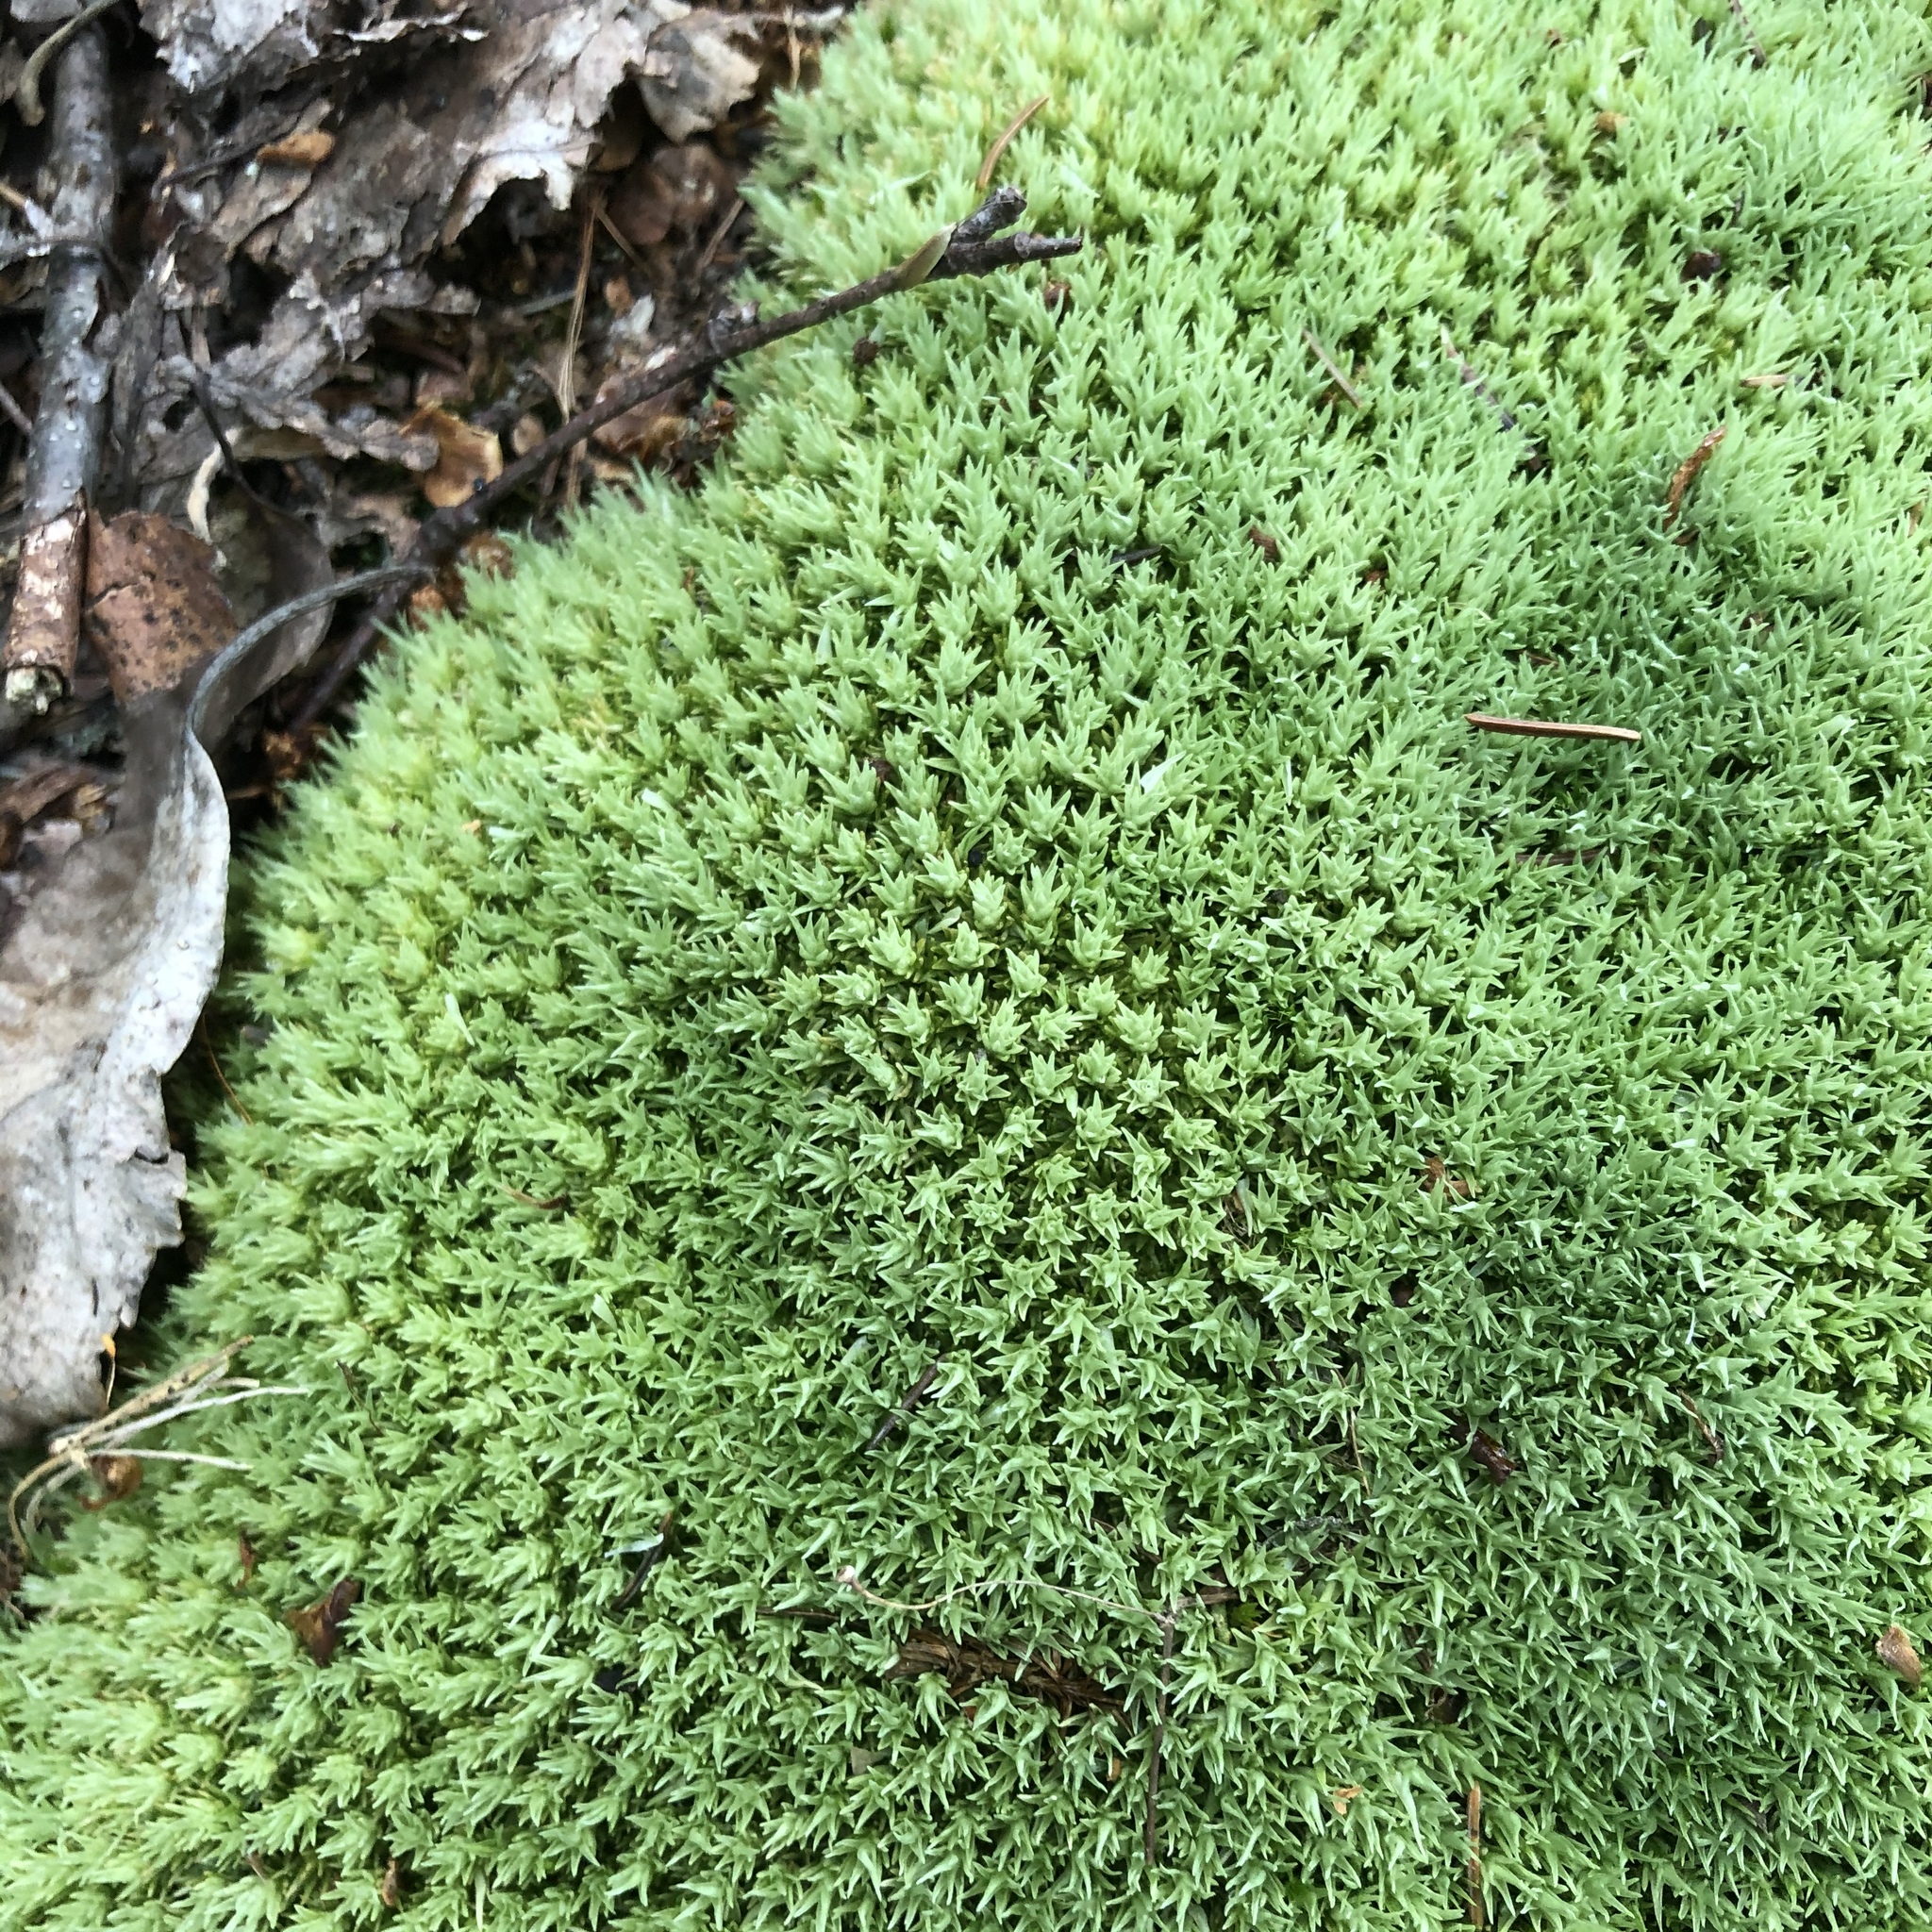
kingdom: Plantae
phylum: Bryophyta
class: Bryopsida
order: Dicranales
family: Leucobryaceae
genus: Leucobryum
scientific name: Leucobryum glaucum
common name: Large white-moss
